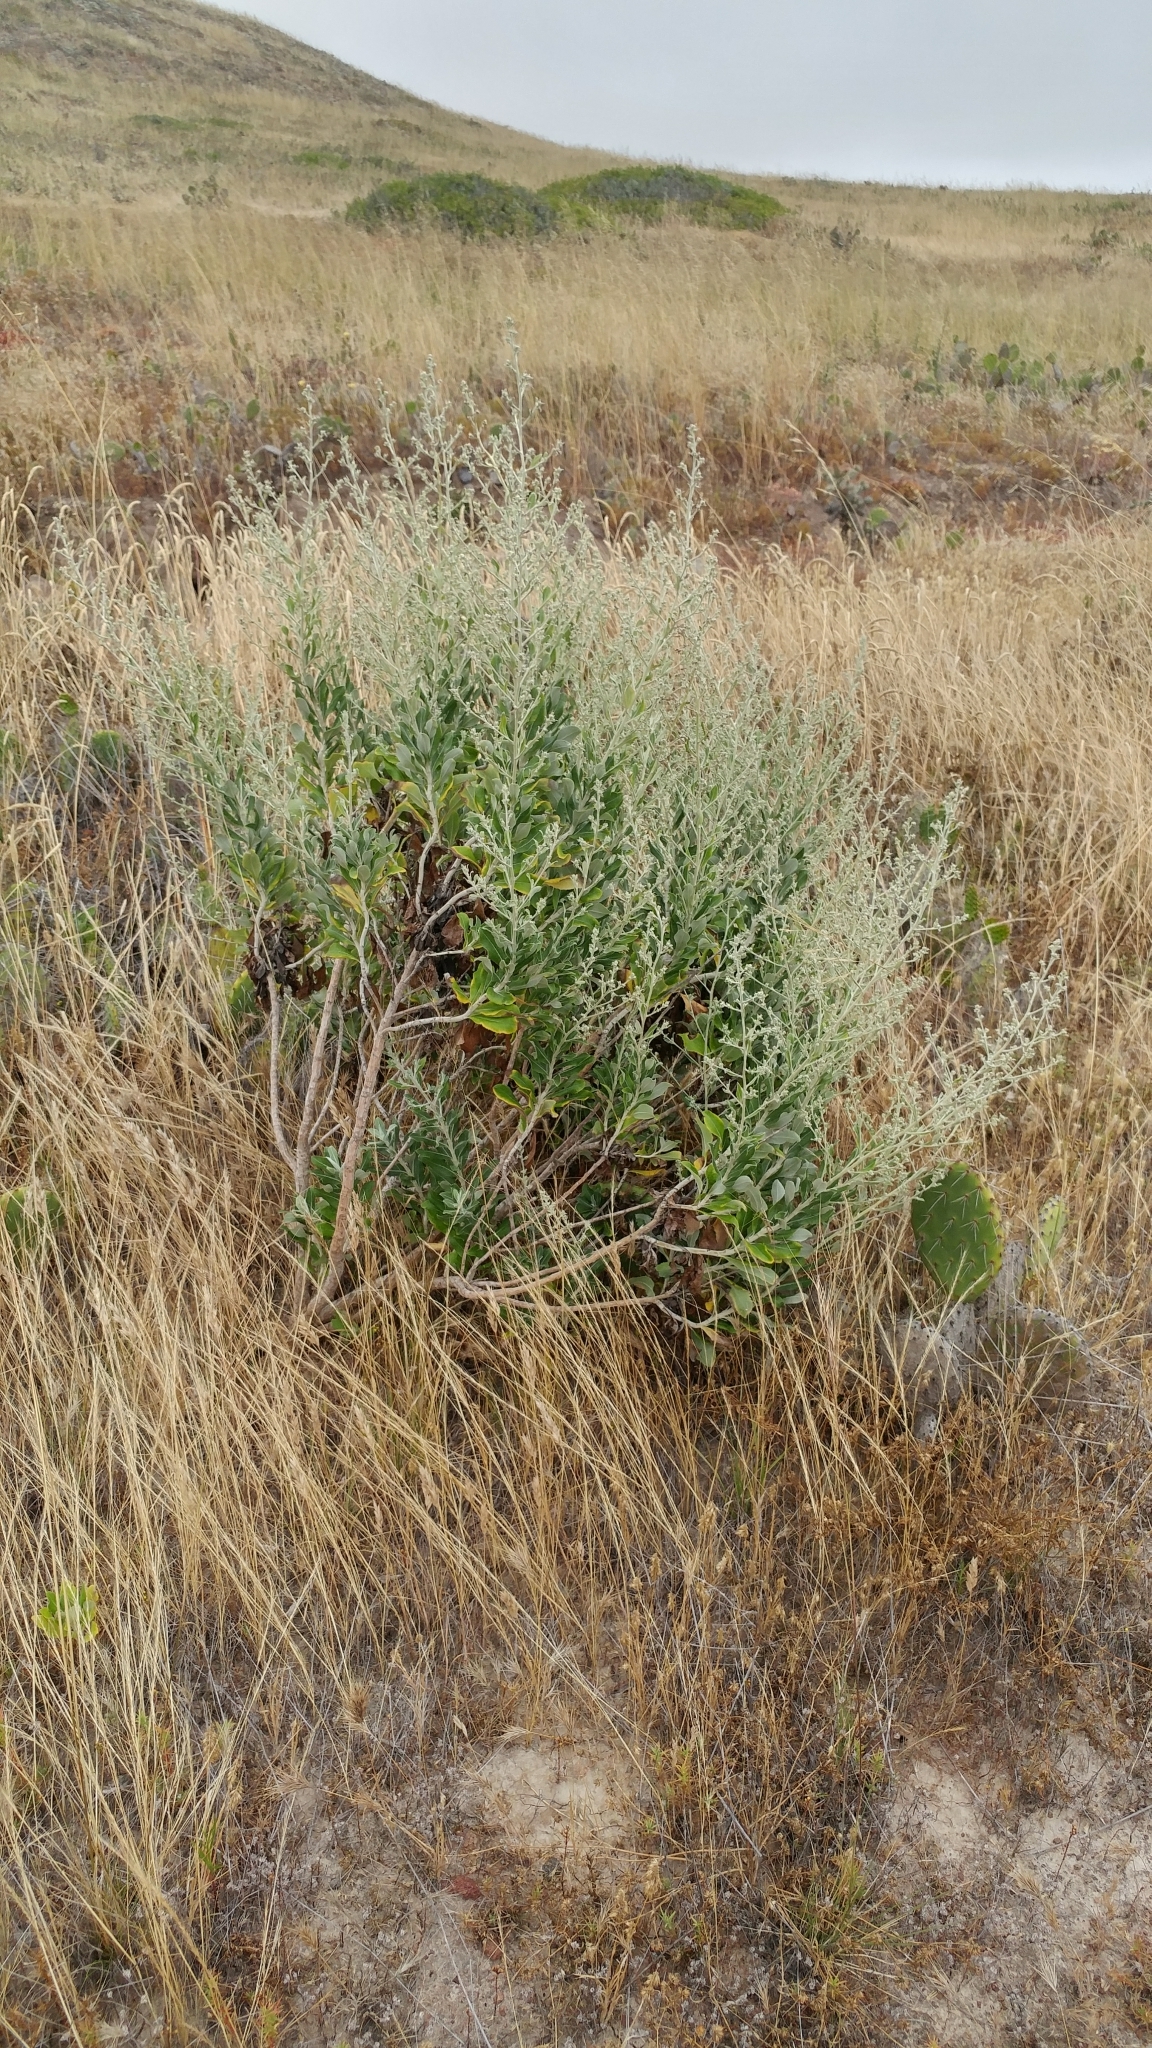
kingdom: Plantae
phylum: Tracheophyta
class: Magnoliopsida
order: Asterales
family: Asteraceae
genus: Hazardia
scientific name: Hazardia cana
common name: San clemente island bristleweed
